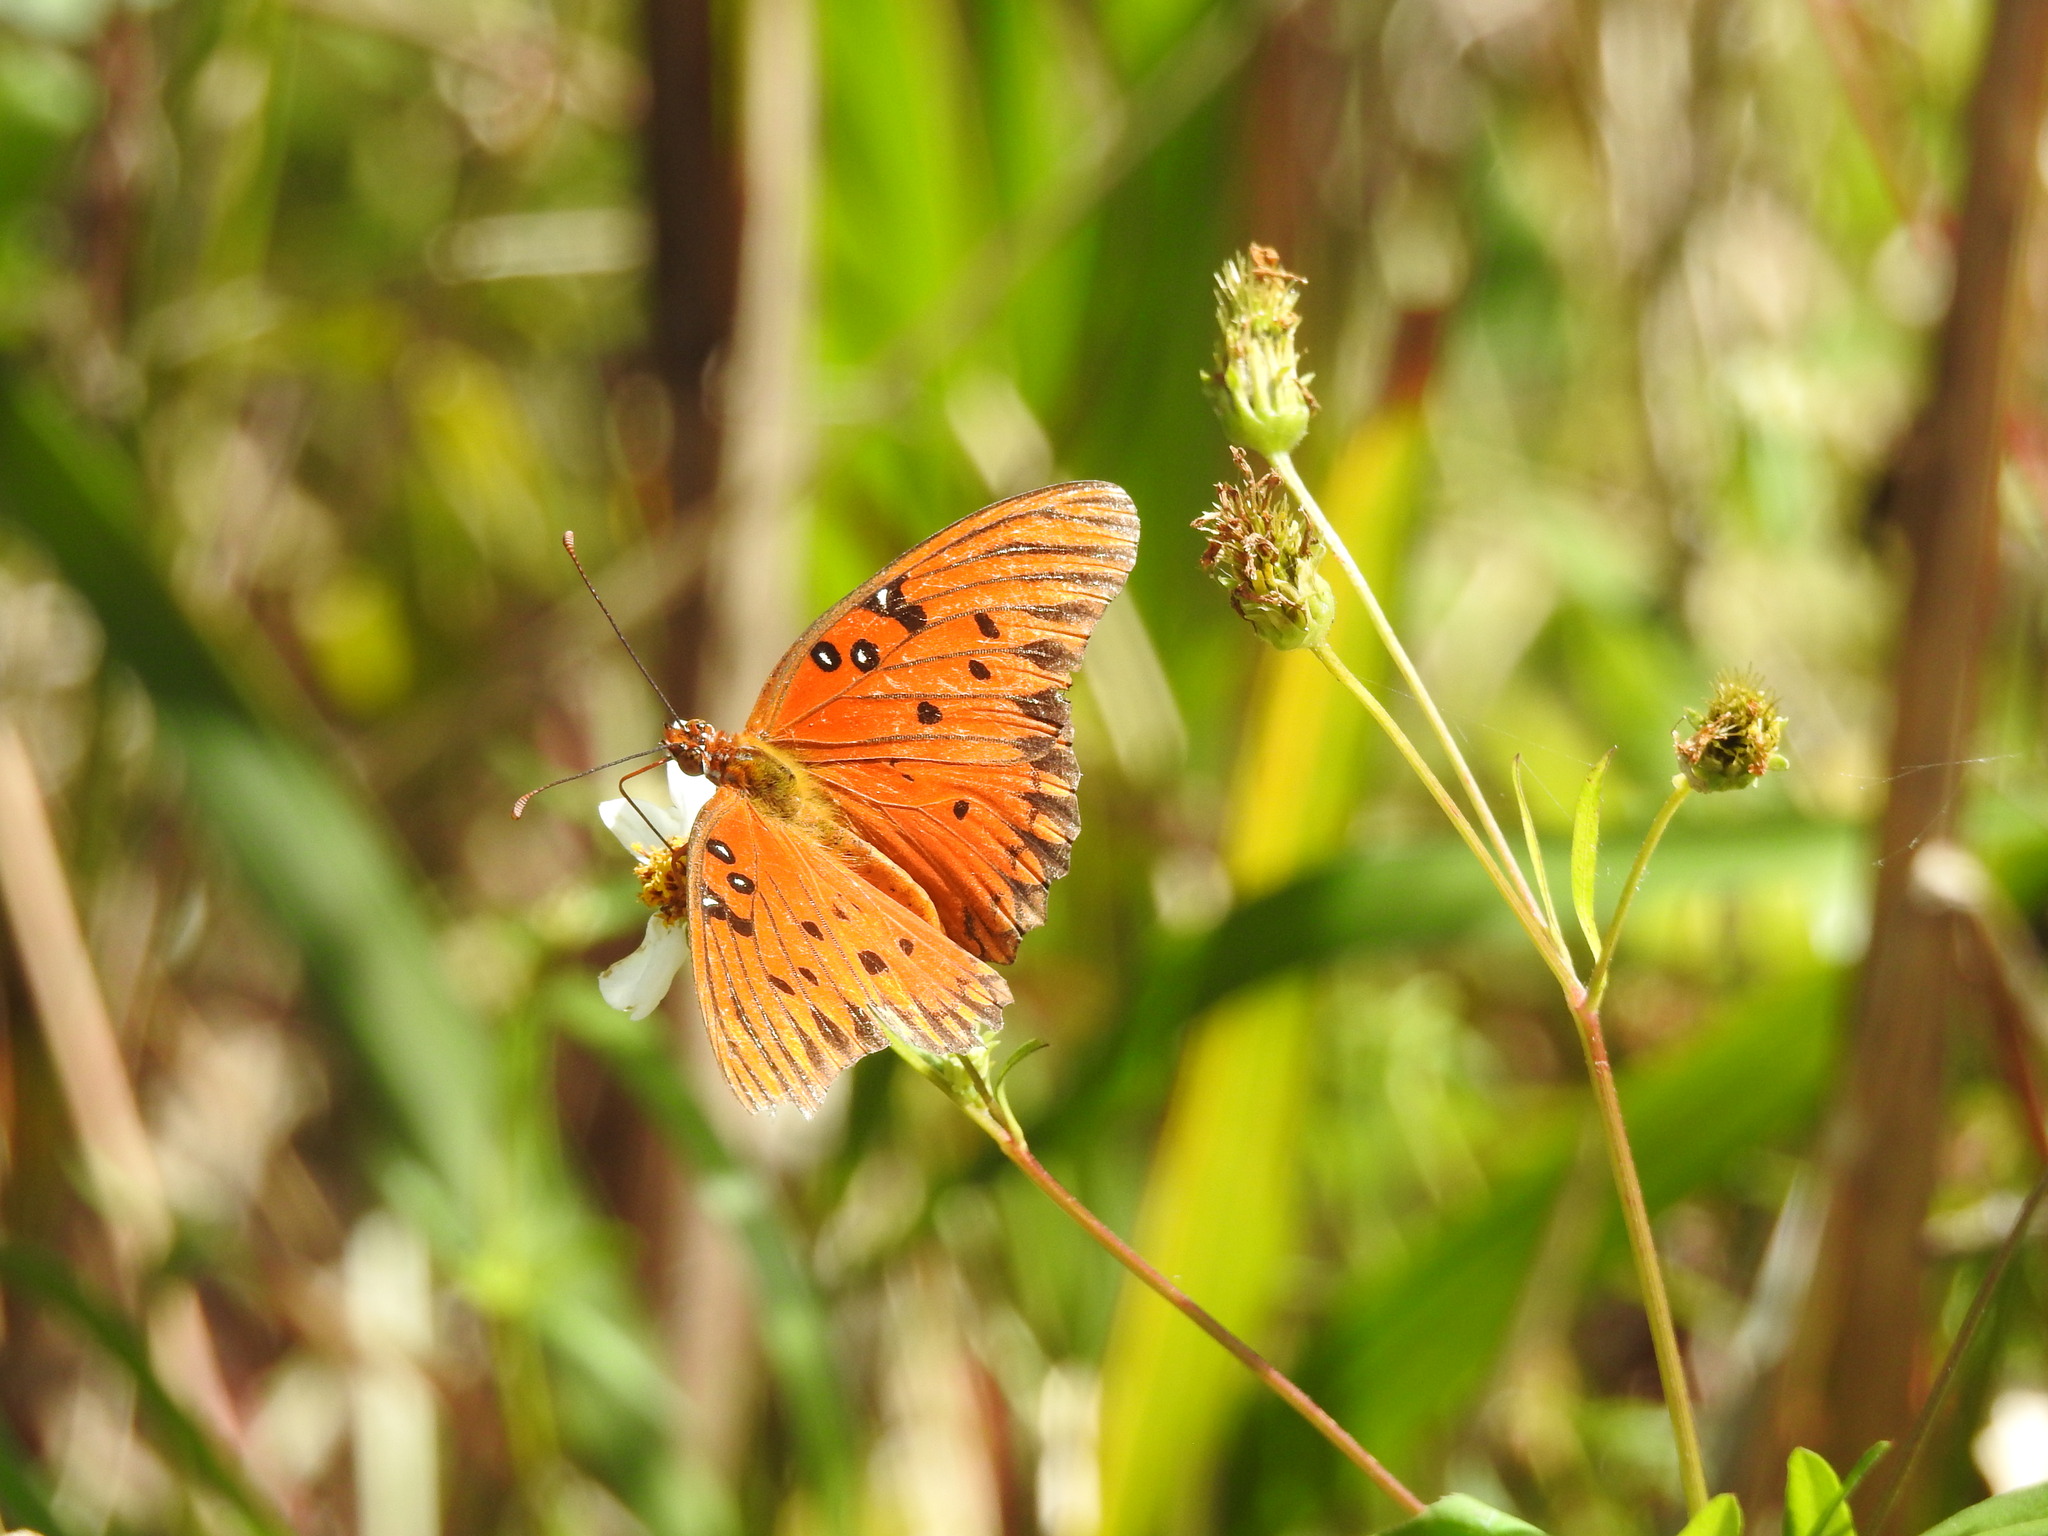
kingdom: Animalia
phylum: Arthropoda
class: Insecta
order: Lepidoptera
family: Nymphalidae
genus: Dione
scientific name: Dione vanillae
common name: Gulf fritillary
